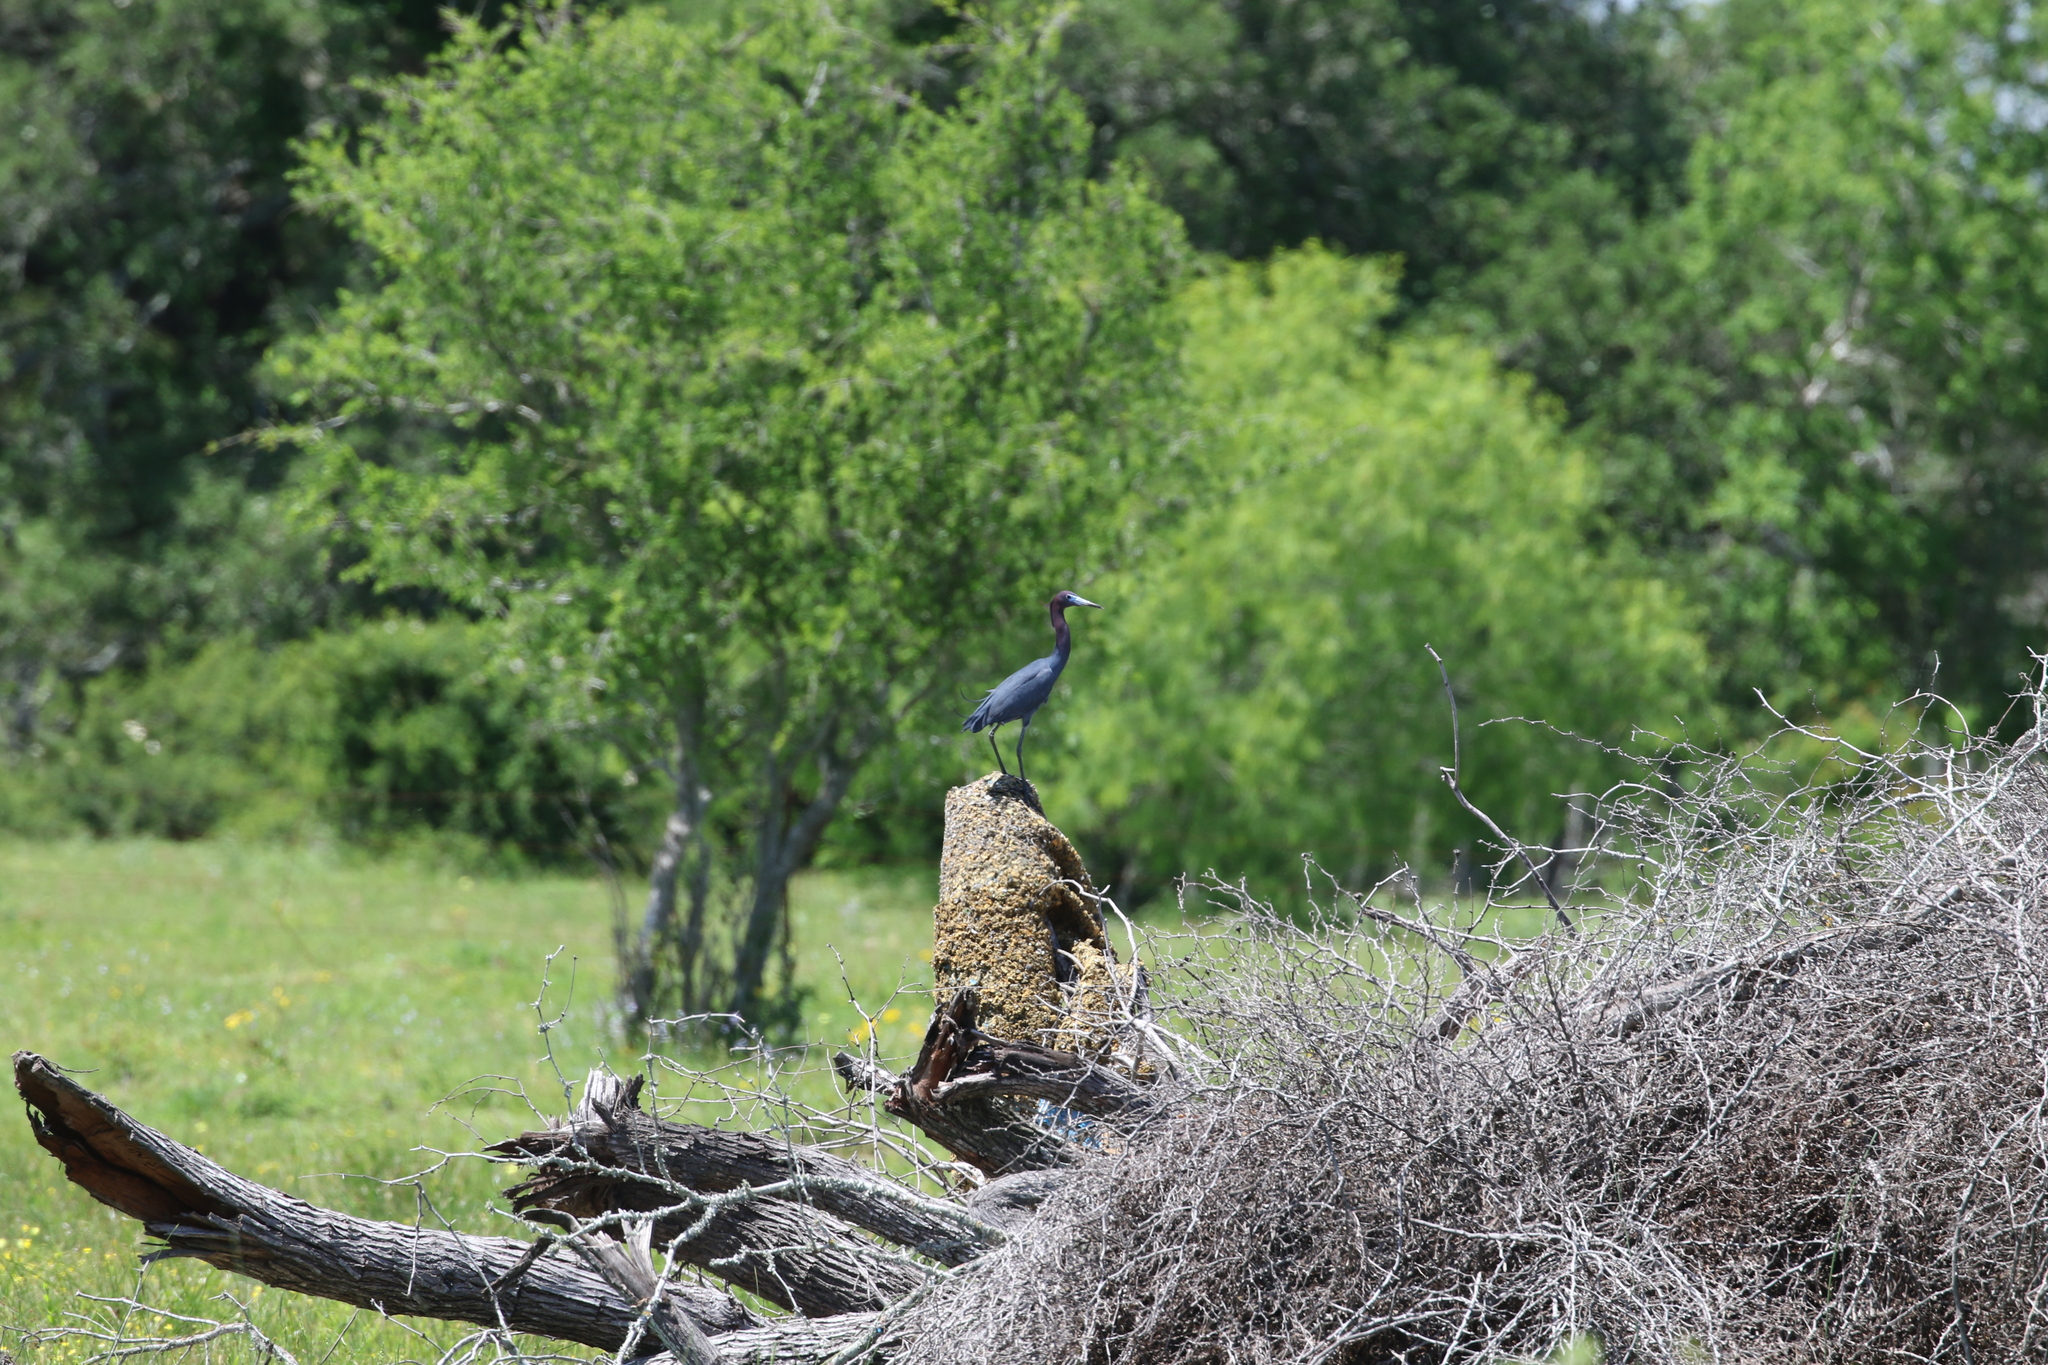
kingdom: Animalia
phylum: Chordata
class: Aves
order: Pelecaniformes
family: Ardeidae
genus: Egretta
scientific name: Egretta caerulea
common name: Little blue heron
